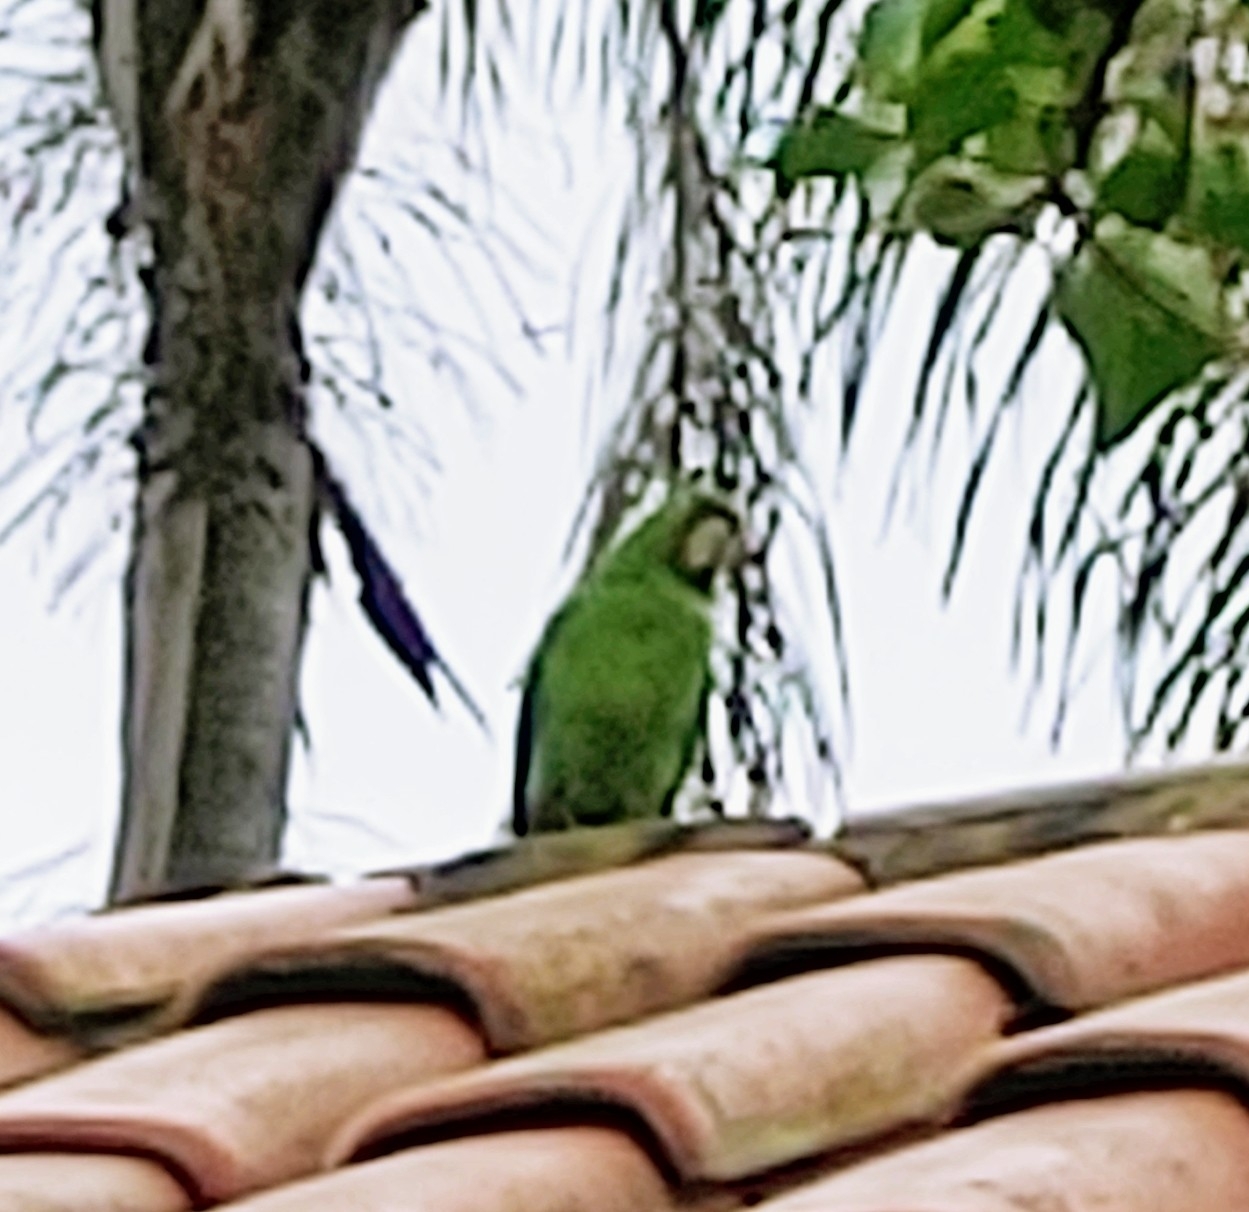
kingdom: Animalia
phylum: Chordata
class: Aves
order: Psittaciformes
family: Psittacidae
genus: Aratinga
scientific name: Aratinga leucophthalma
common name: White-eyed parakeet
